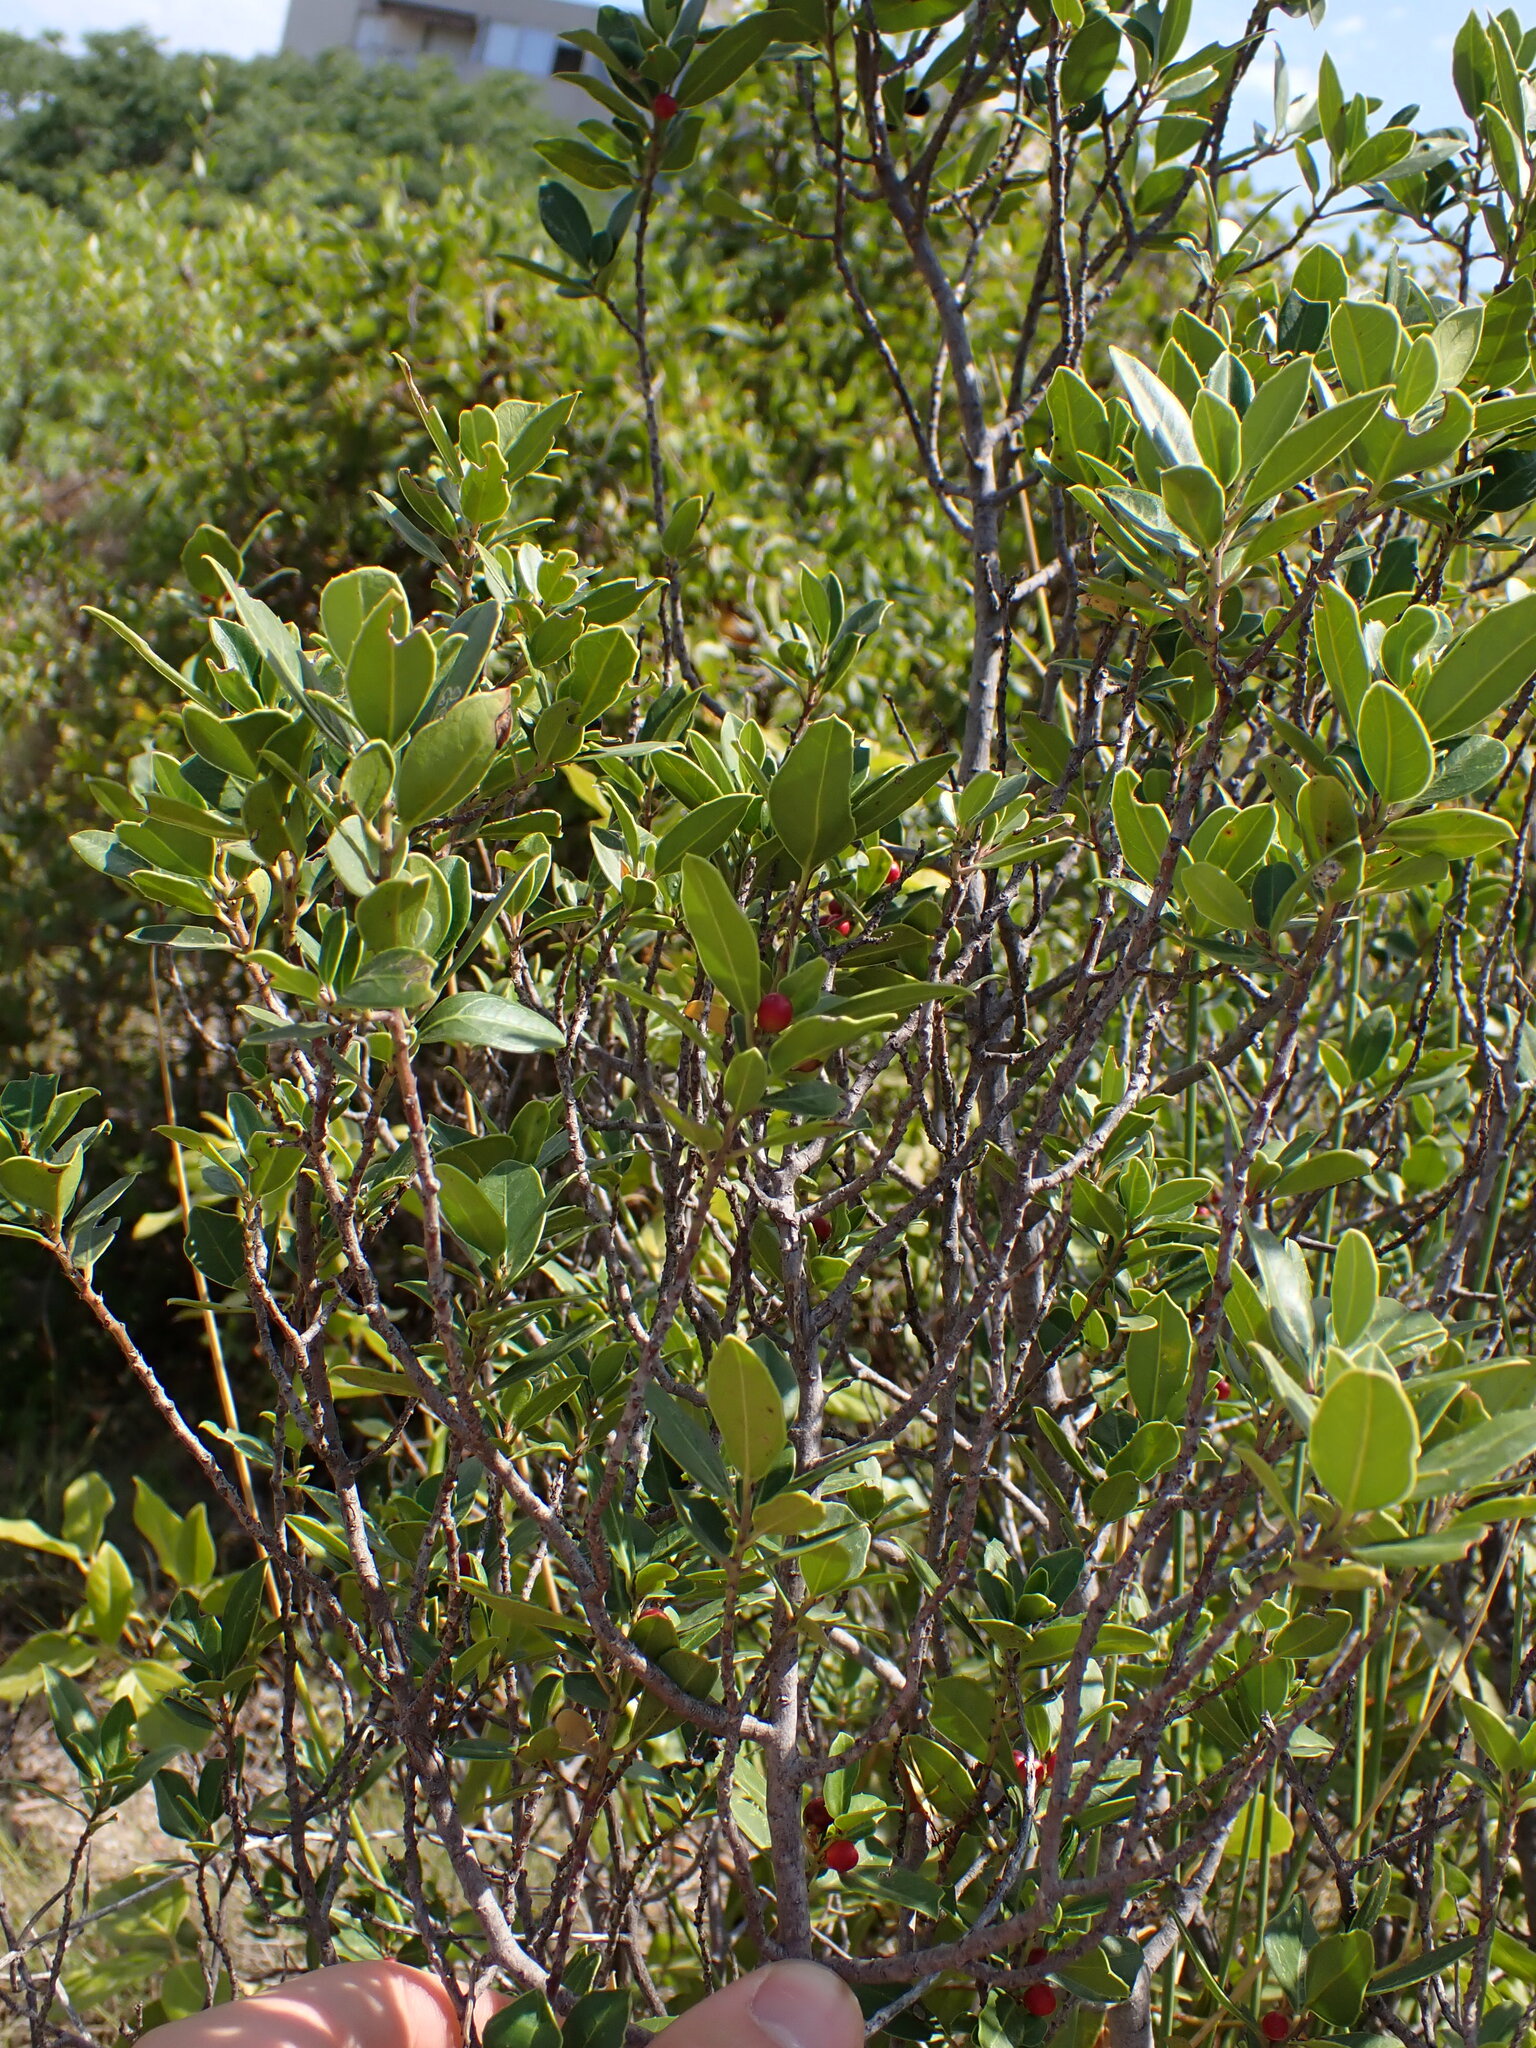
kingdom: Plantae
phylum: Tracheophyta
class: Magnoliopsida
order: Rosales
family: Rhamnaceae
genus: Rhamnus
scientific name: Rhamnus alaternus
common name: Mediterranean buckthorn
